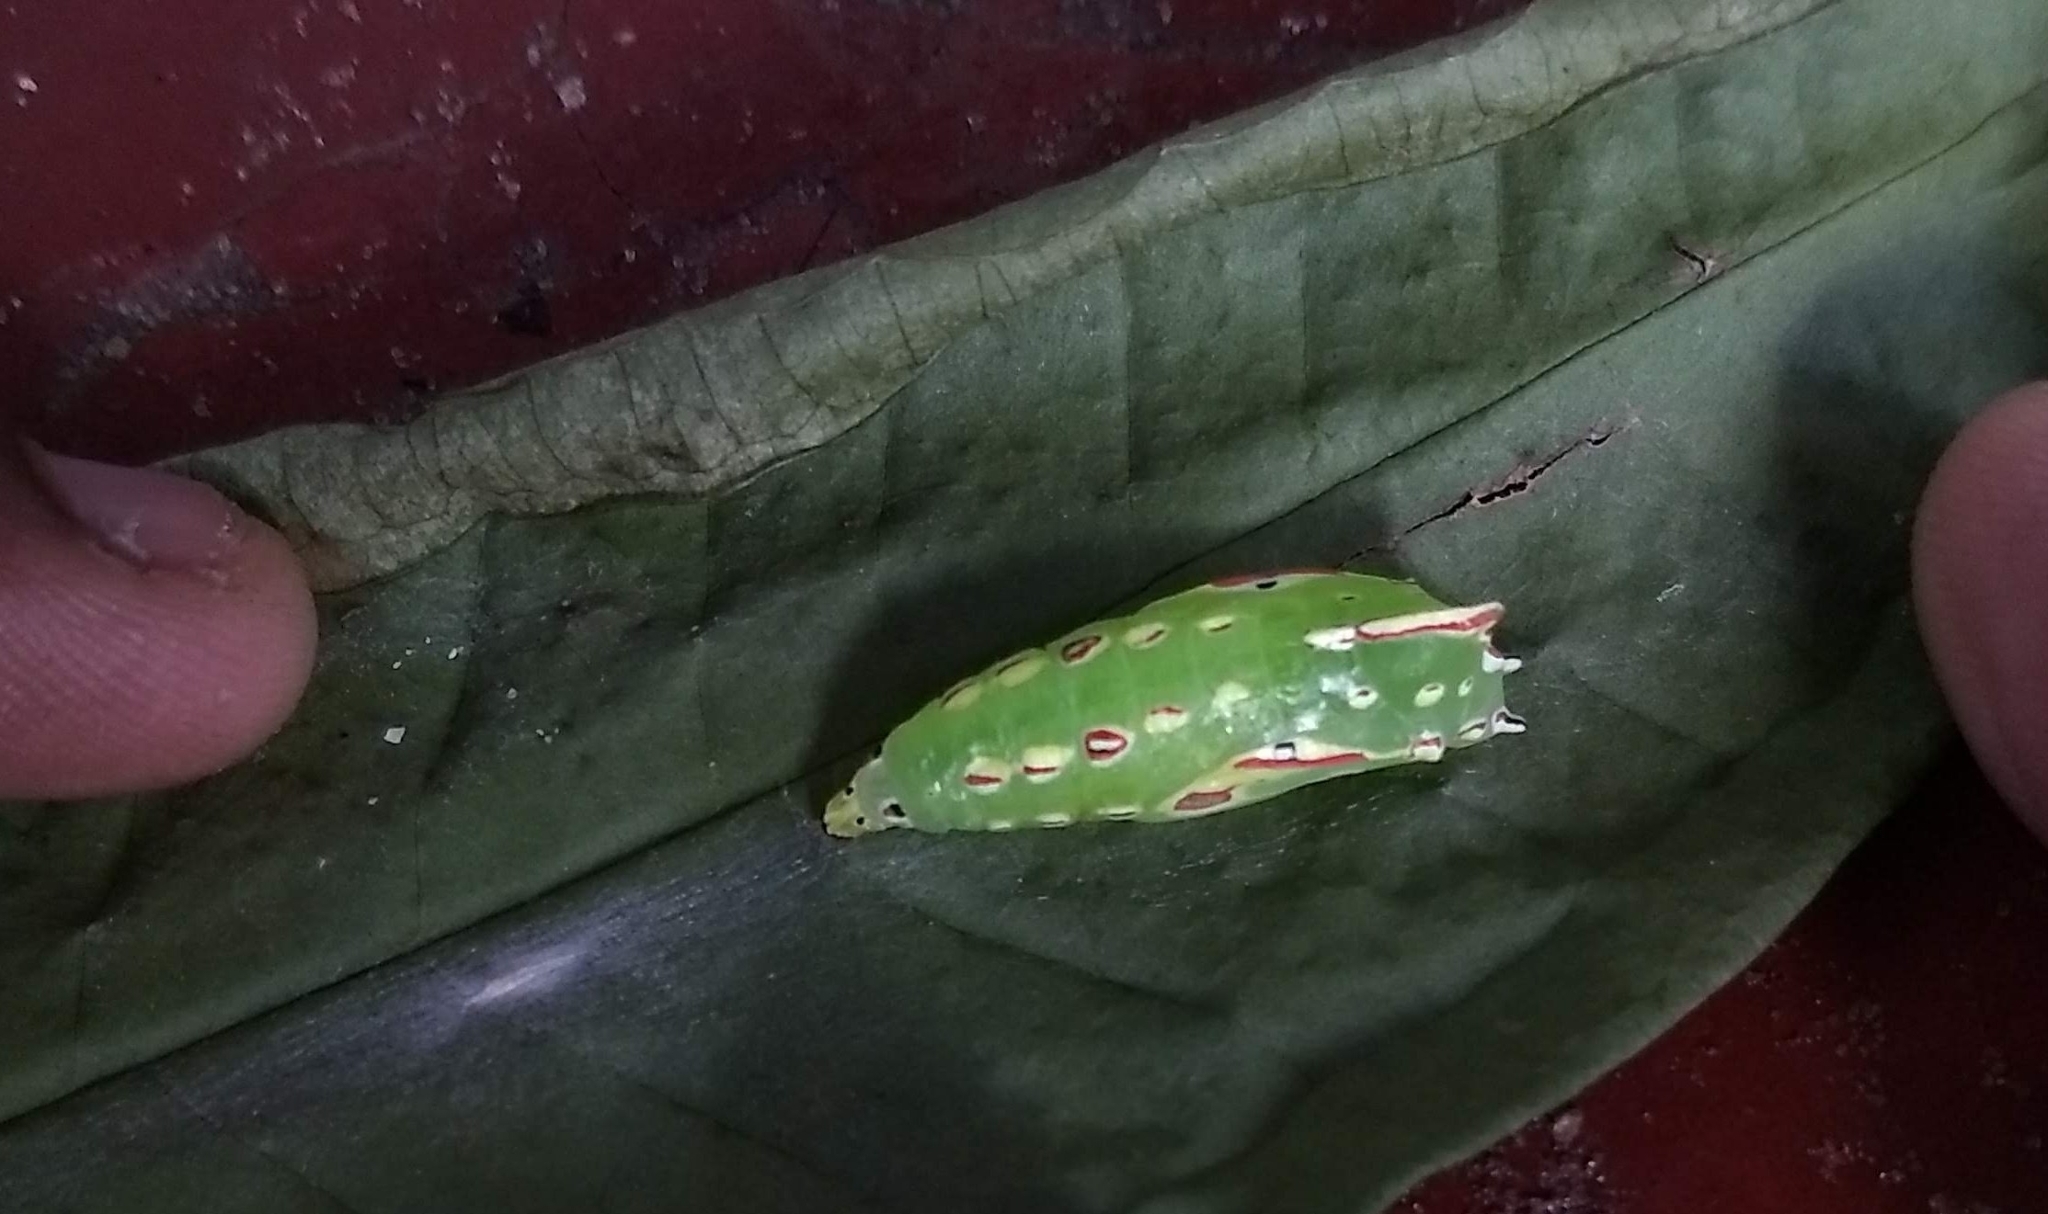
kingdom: Animalia
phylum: Arthropoda
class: Insecta
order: Lepidoptera
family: Nymphalidae
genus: Elymnias
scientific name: Elymnias caudata
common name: Tailed palmfly
